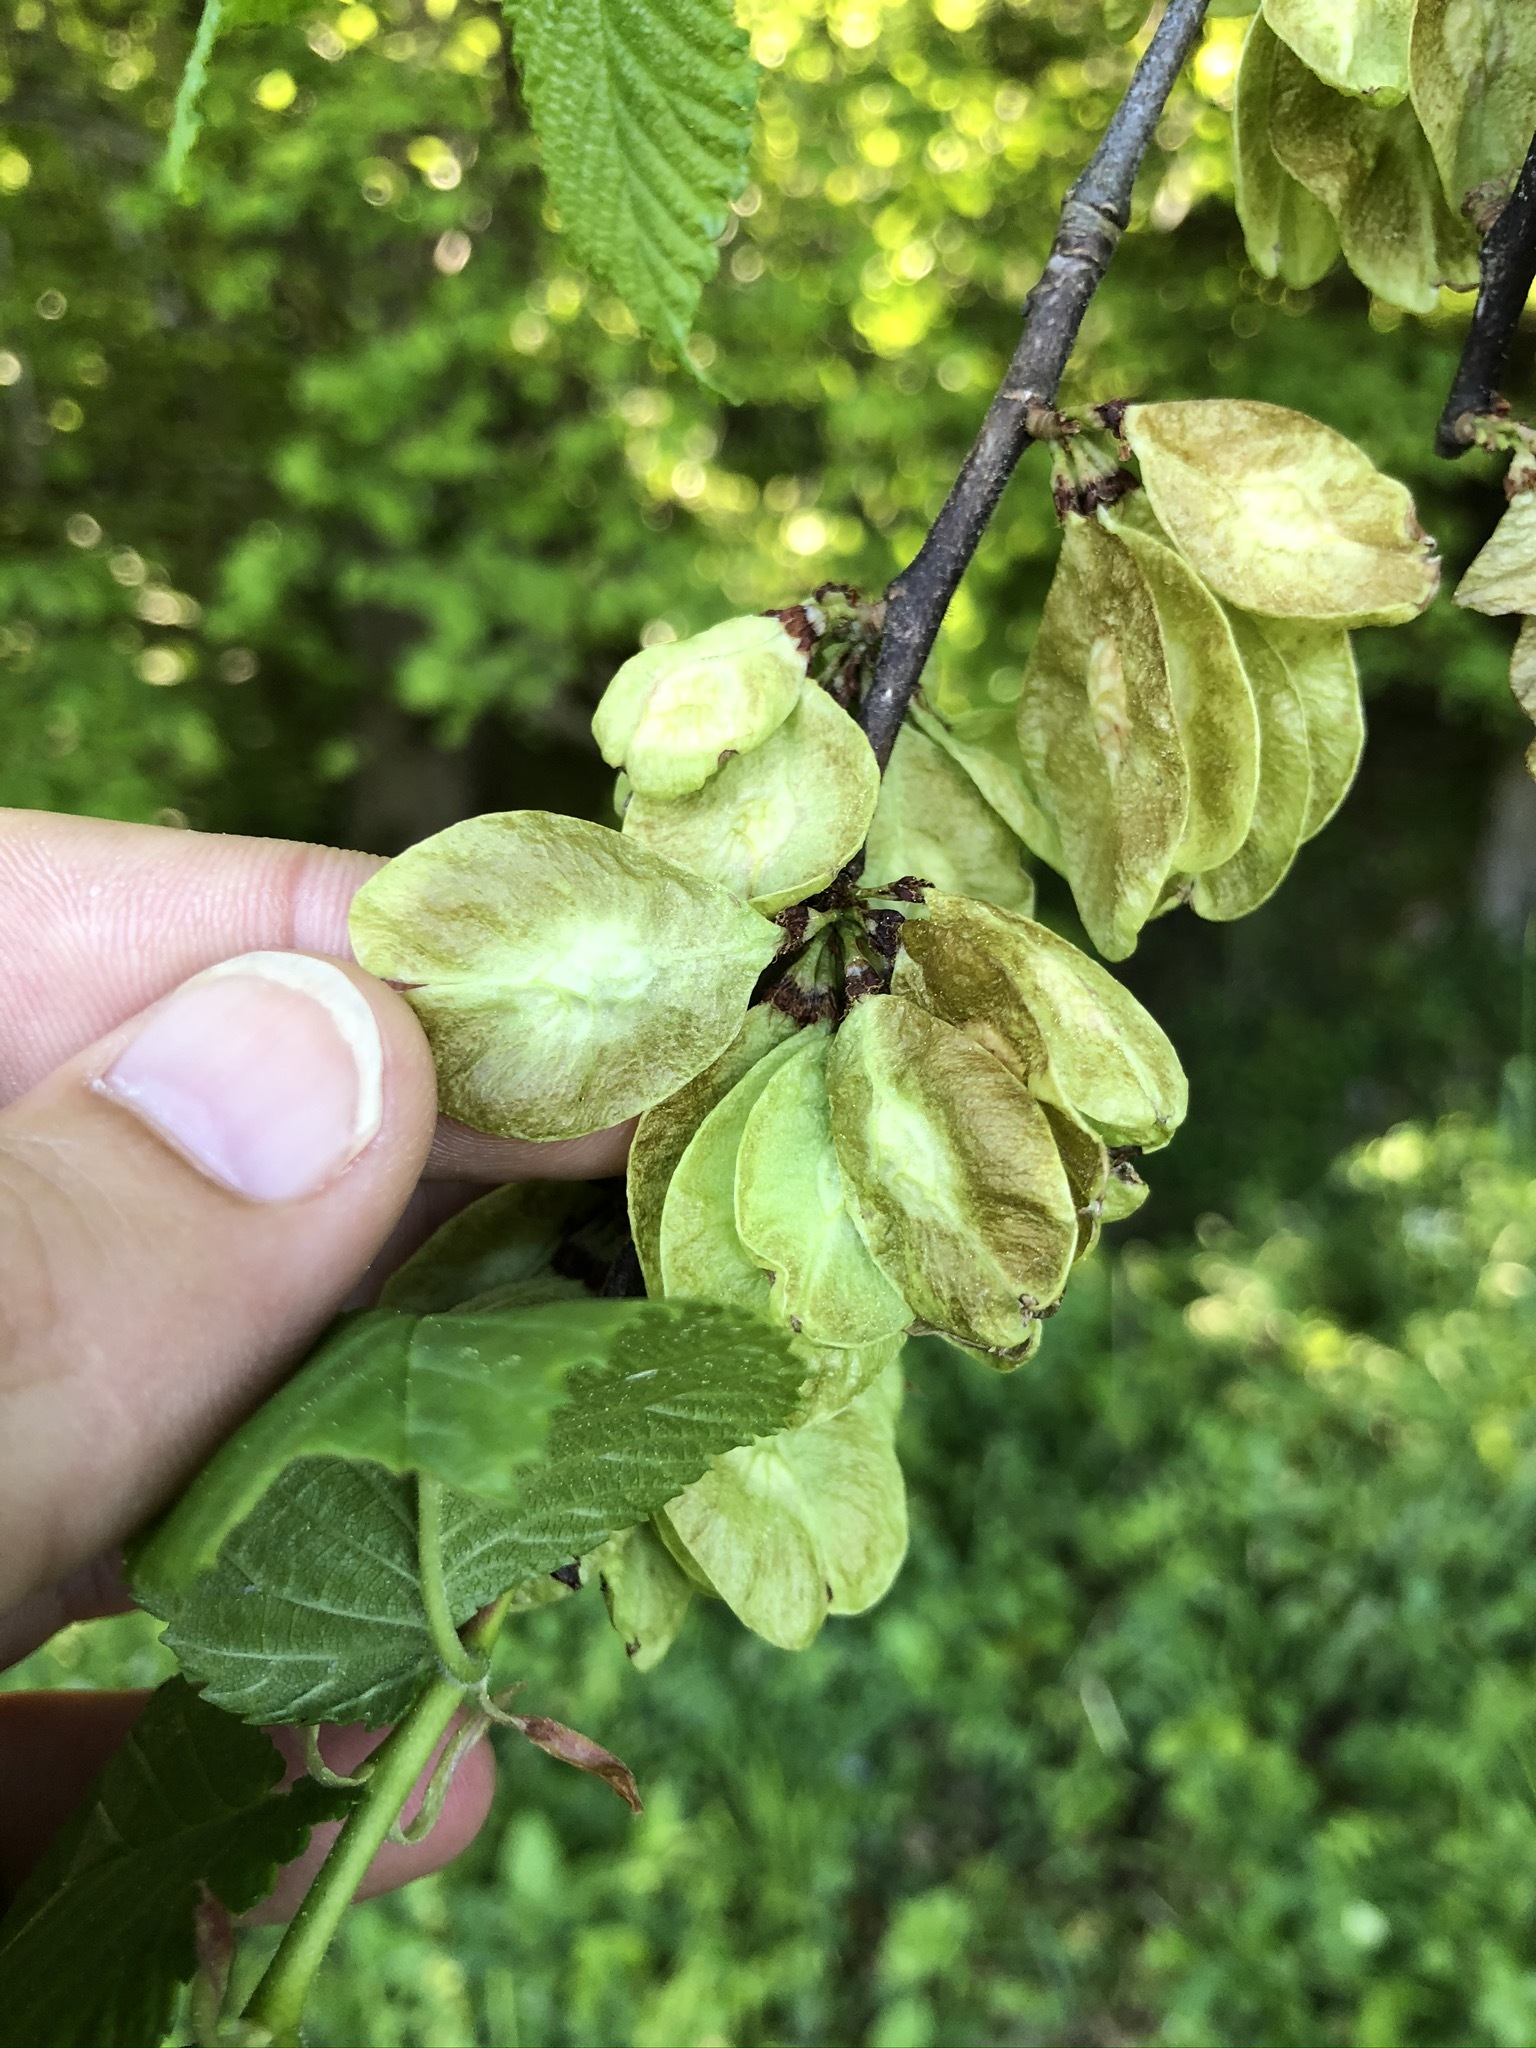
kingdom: Plantae
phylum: Tracheophyta
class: Magnoliopsida
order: Rosales
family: Ulmaceae
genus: Ulmus
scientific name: Ulmus glabra
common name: Wych elm
